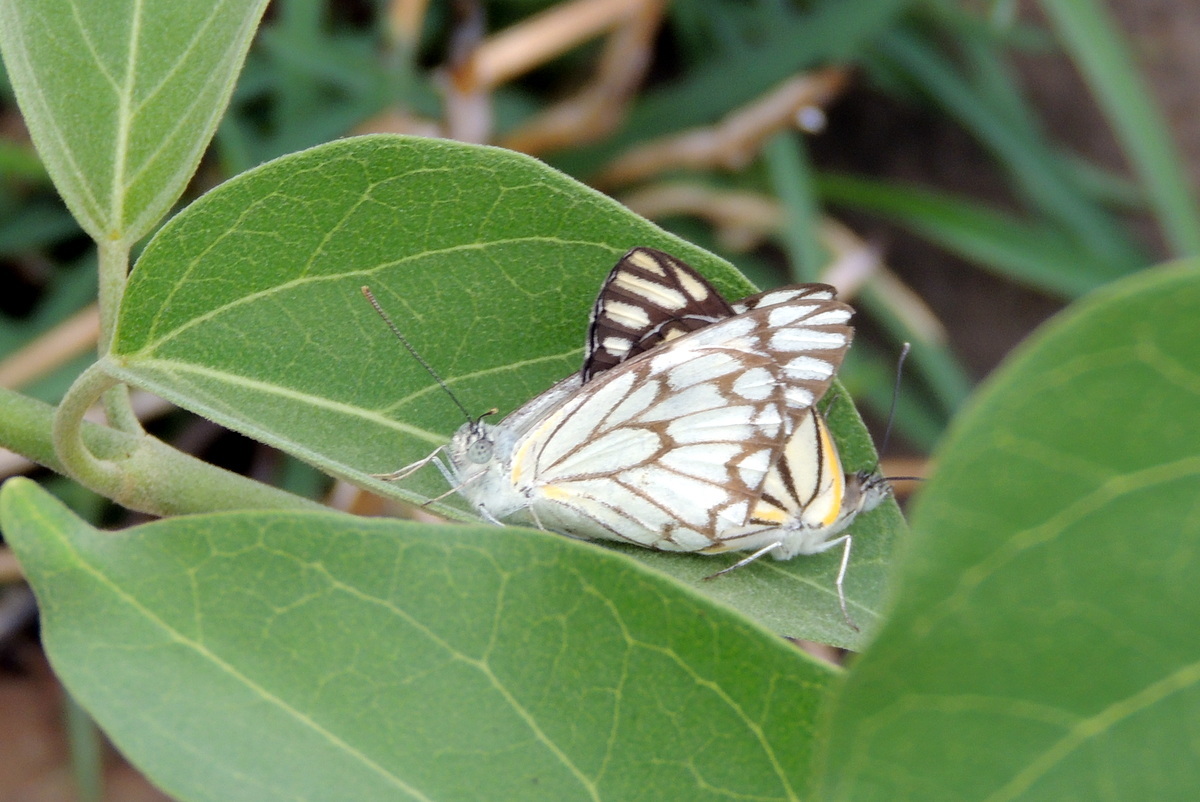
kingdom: Animalia
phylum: Arthropoda
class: Insecta
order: Lepidoptera
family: Pieridae
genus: Belenois
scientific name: Belenois aurota
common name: Brown-veined white
